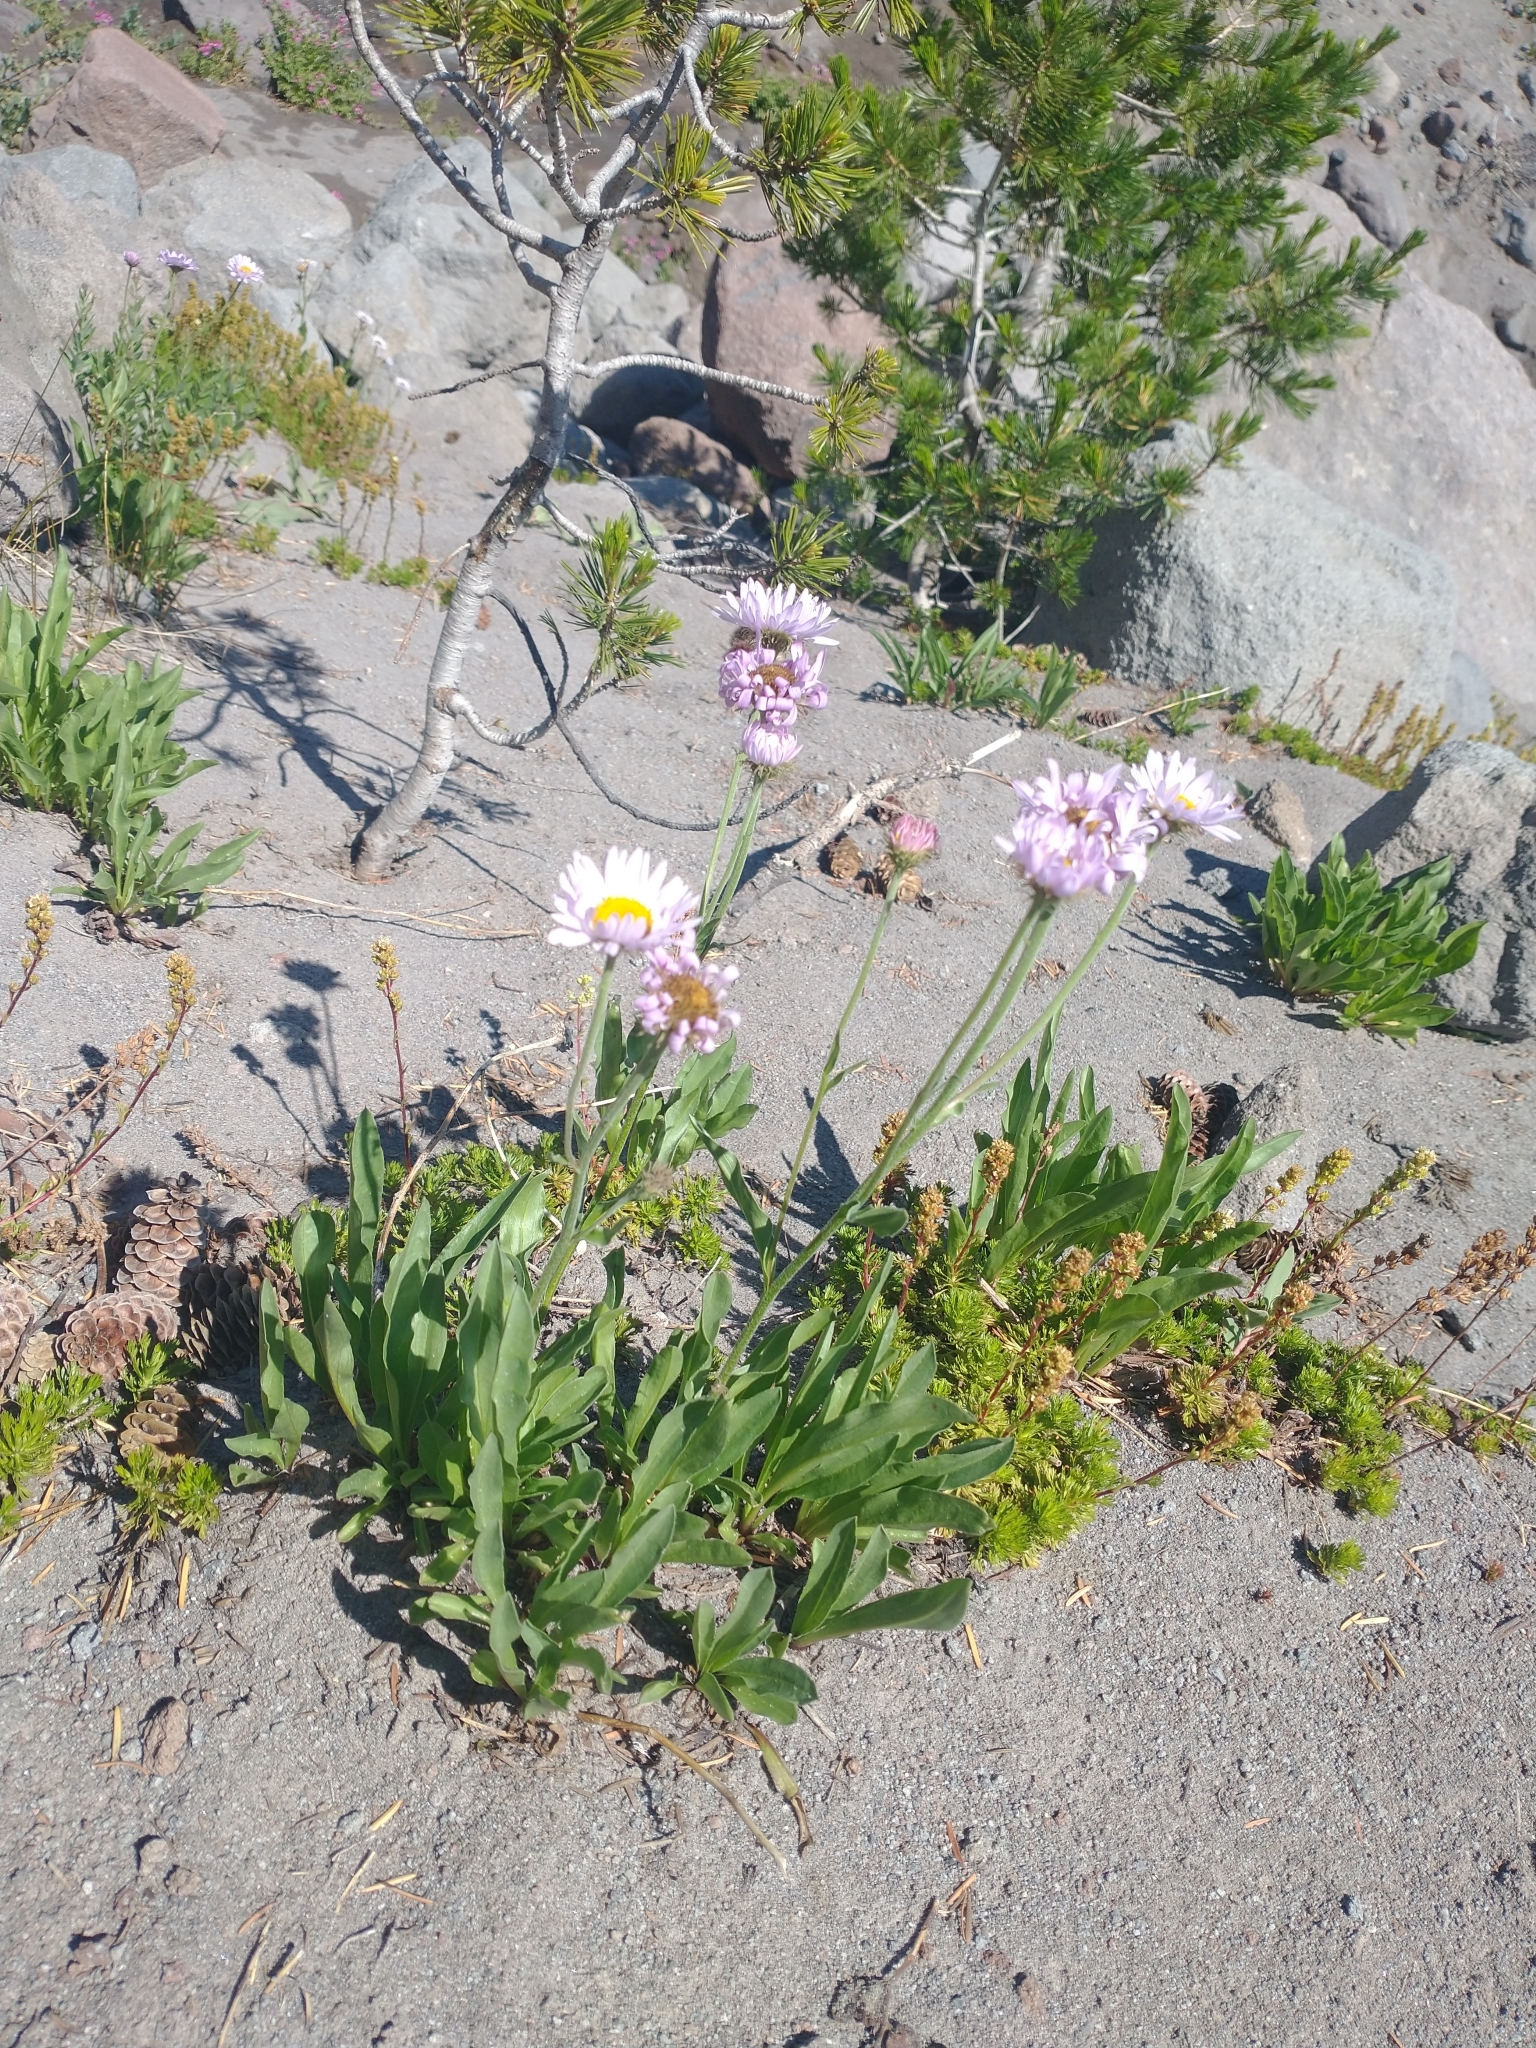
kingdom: Plantae
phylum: Tracheophyta
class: Magnoliopsida
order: Asterales
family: Asteraceae
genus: Erigeron
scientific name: Erigeron glacialis
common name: Subalpine fleabane
